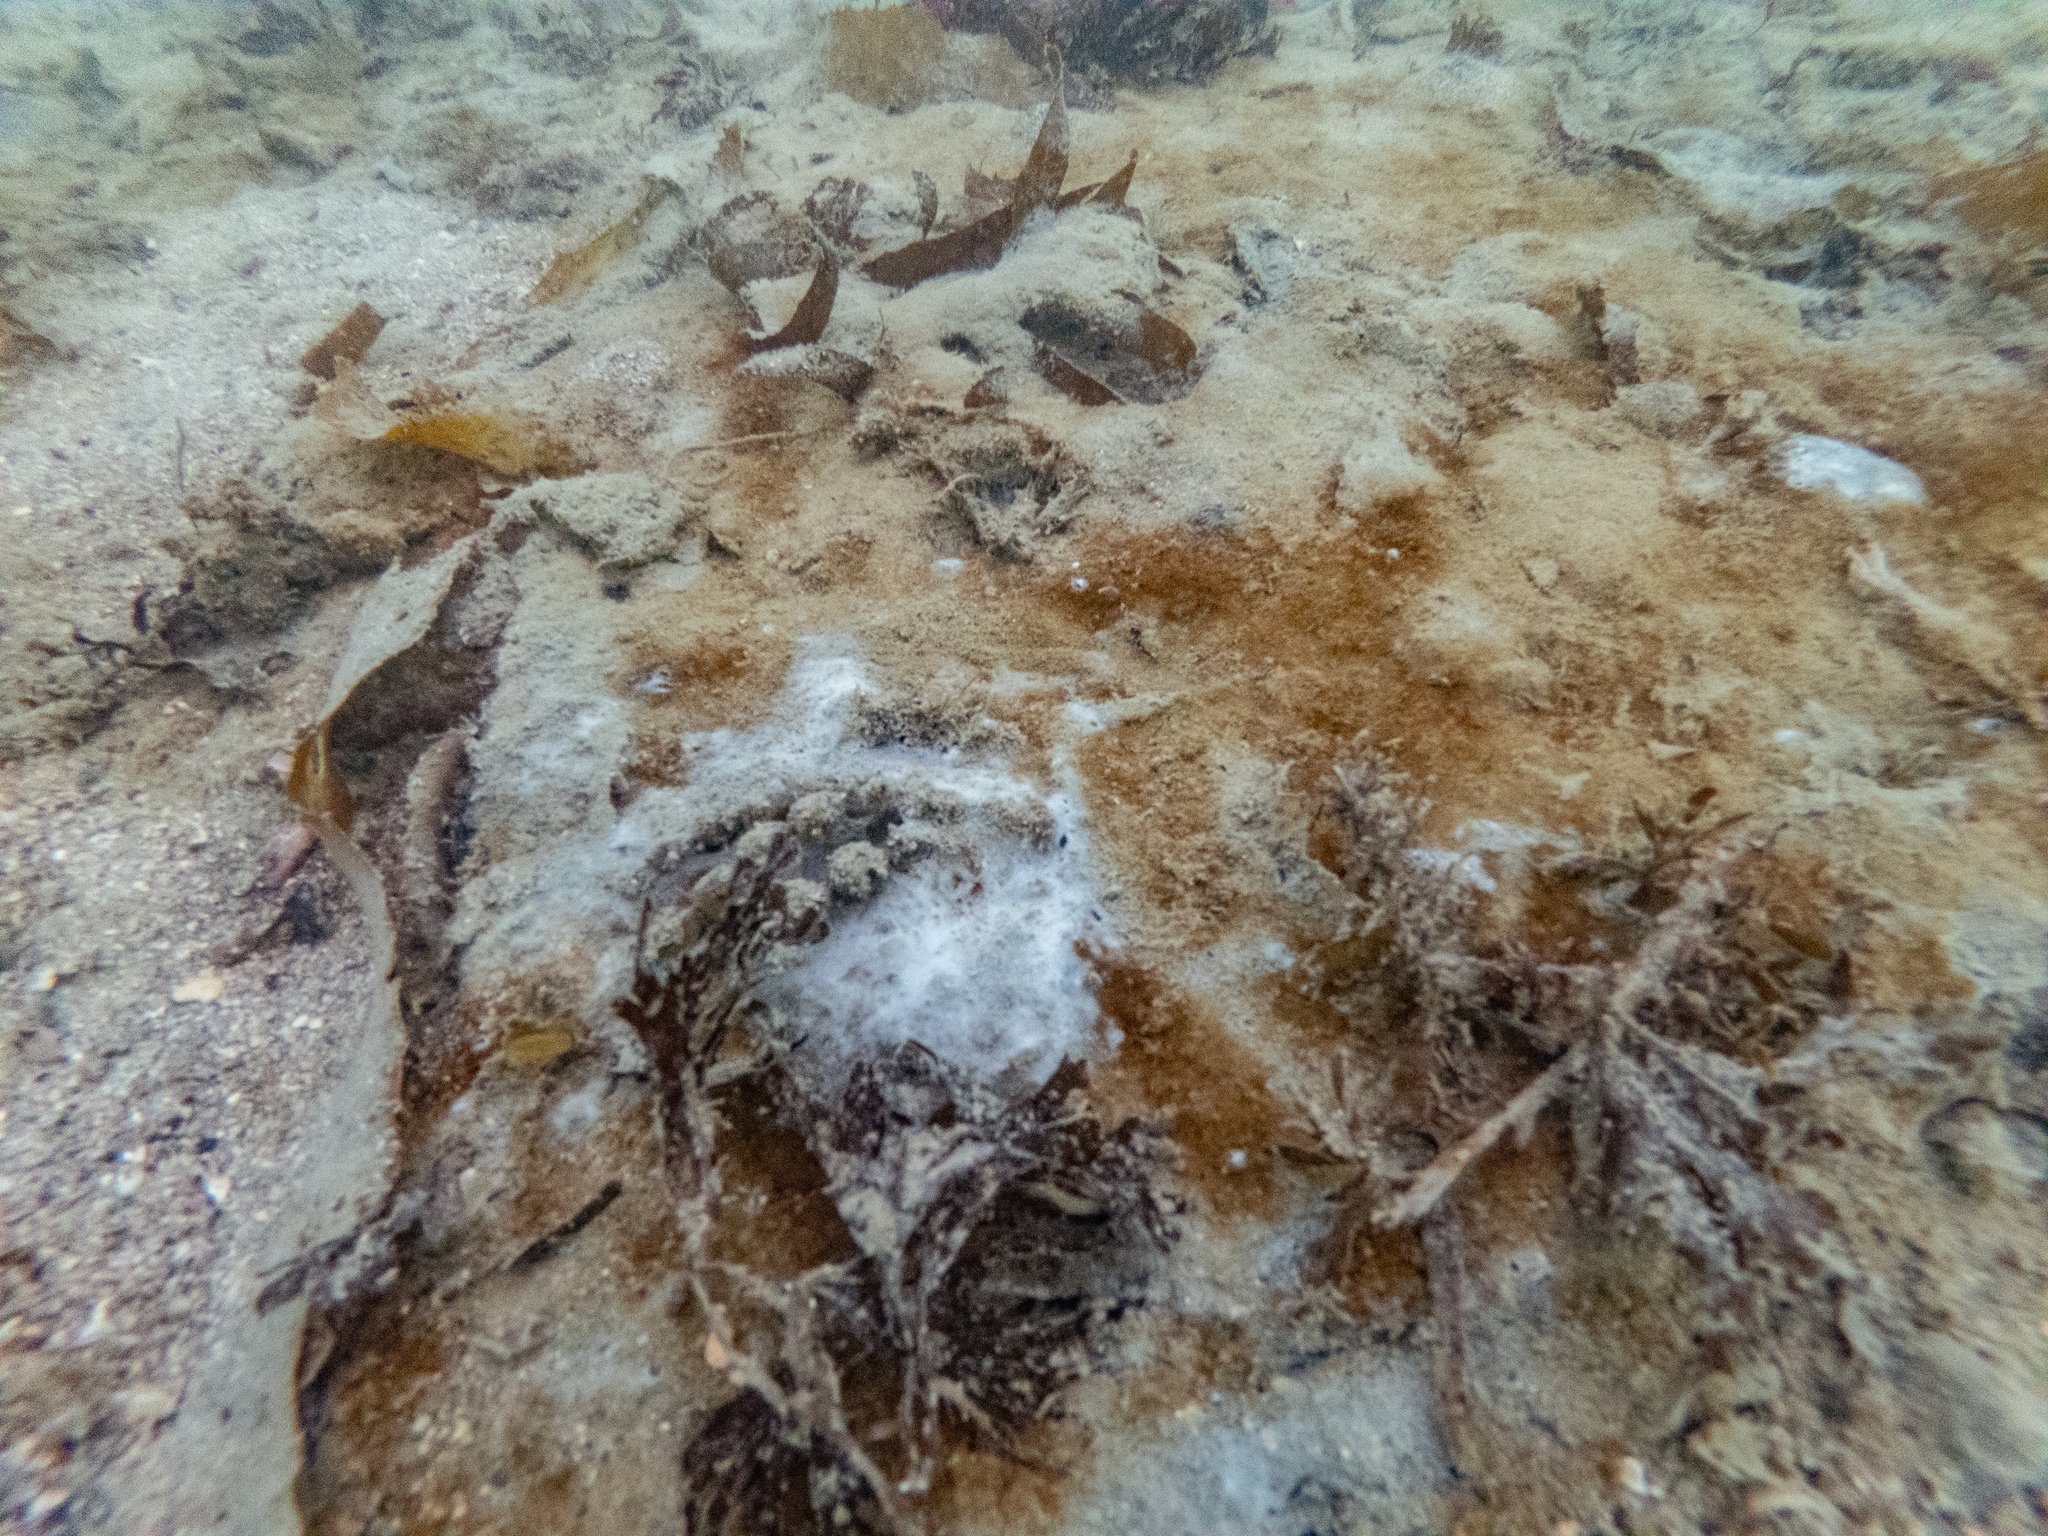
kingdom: Chromista
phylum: Ochrophyta
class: Phaeophyceae
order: Laminariales
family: Lessoniaceae
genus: Ecklonia
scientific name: Ecklonia radiata
